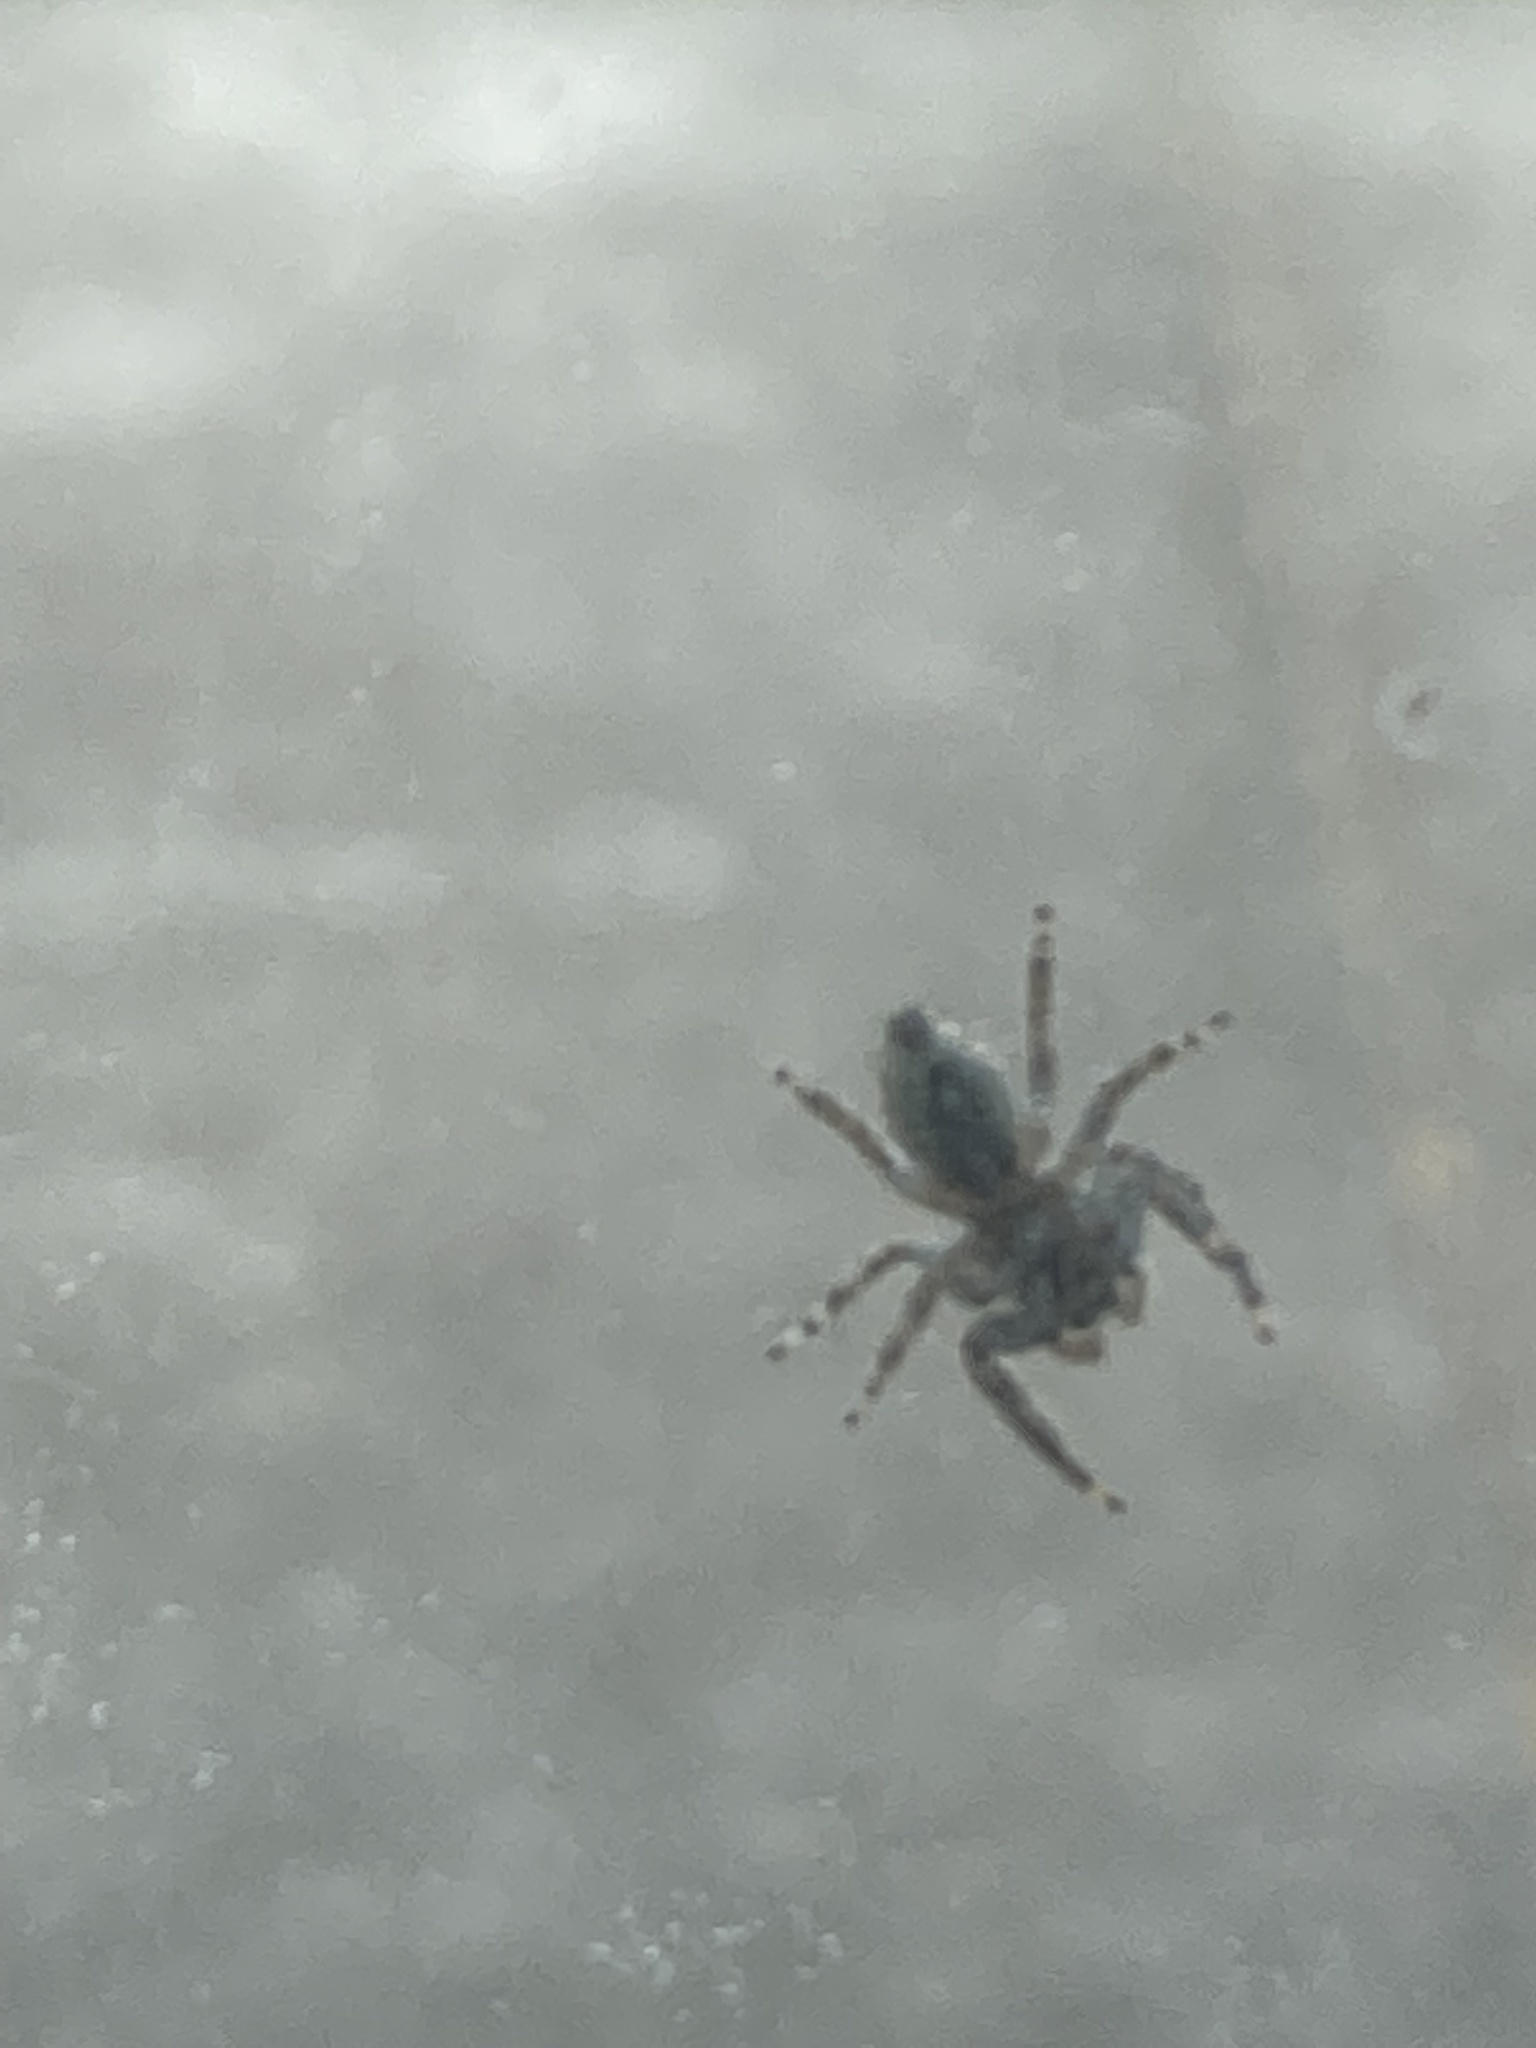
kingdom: Animalia
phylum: Arthropoda
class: Arachnida
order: Araneae
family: Salticidae
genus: Platycryptus
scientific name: Platycryptus undatus
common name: Tan jumping spider
